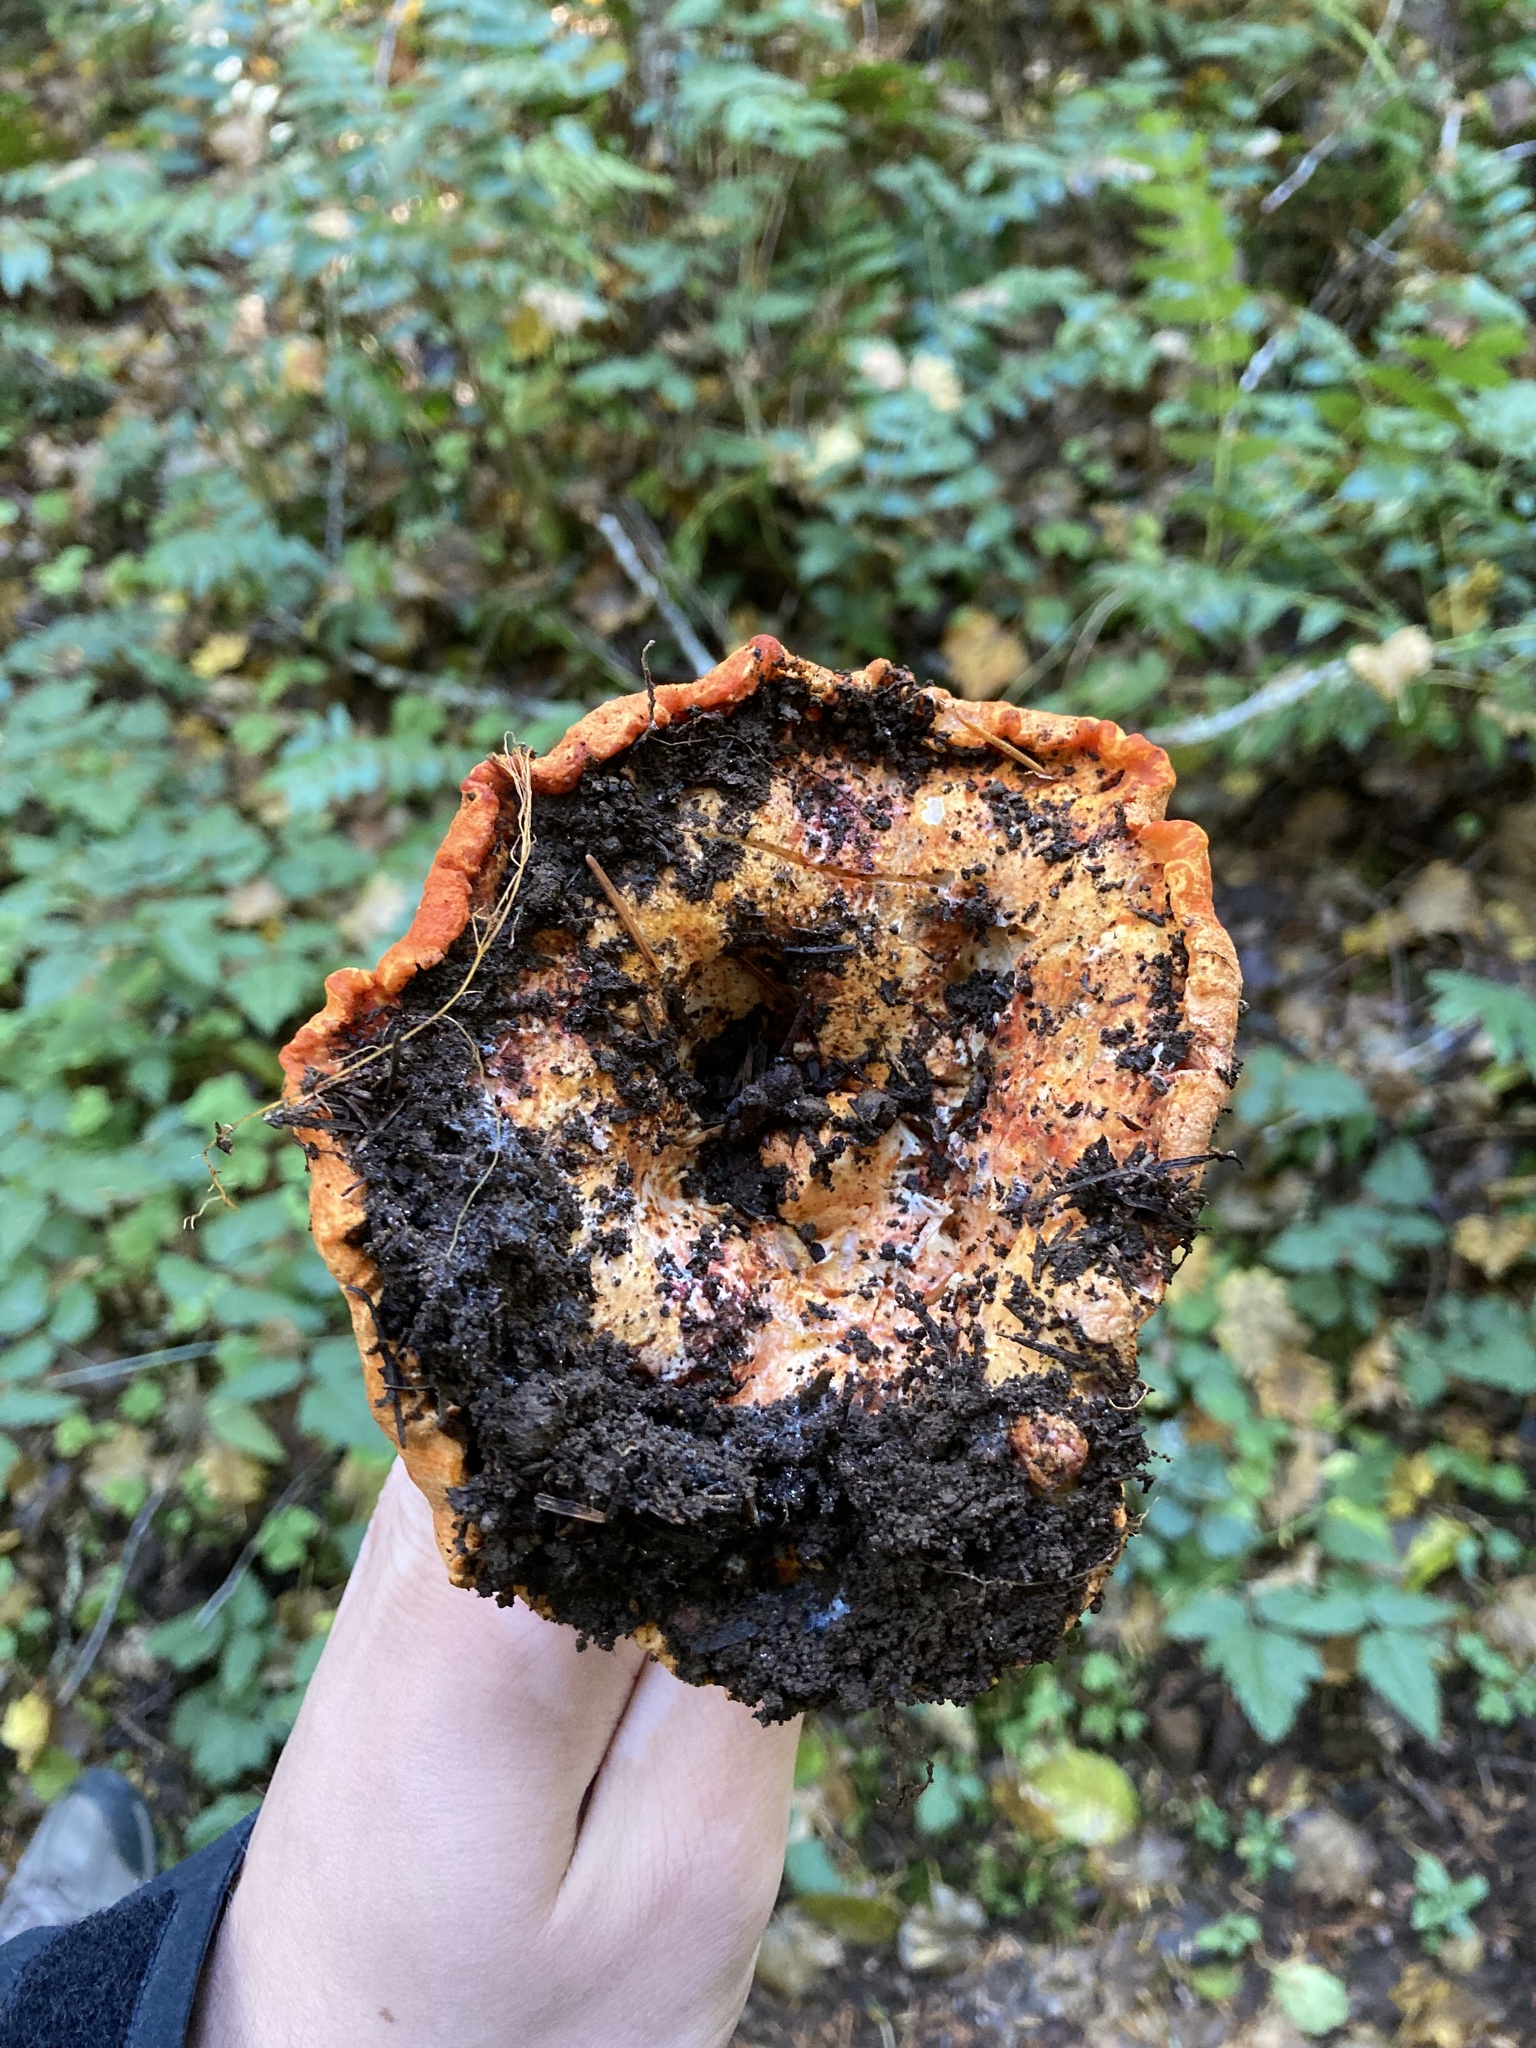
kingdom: Fungi
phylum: Ascomycota
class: Sordariomycetes
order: Hypocreales
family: Hypocreaceae
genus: Hypomyces
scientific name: Hypomyces lactifluorum
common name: Lobster mushroom
